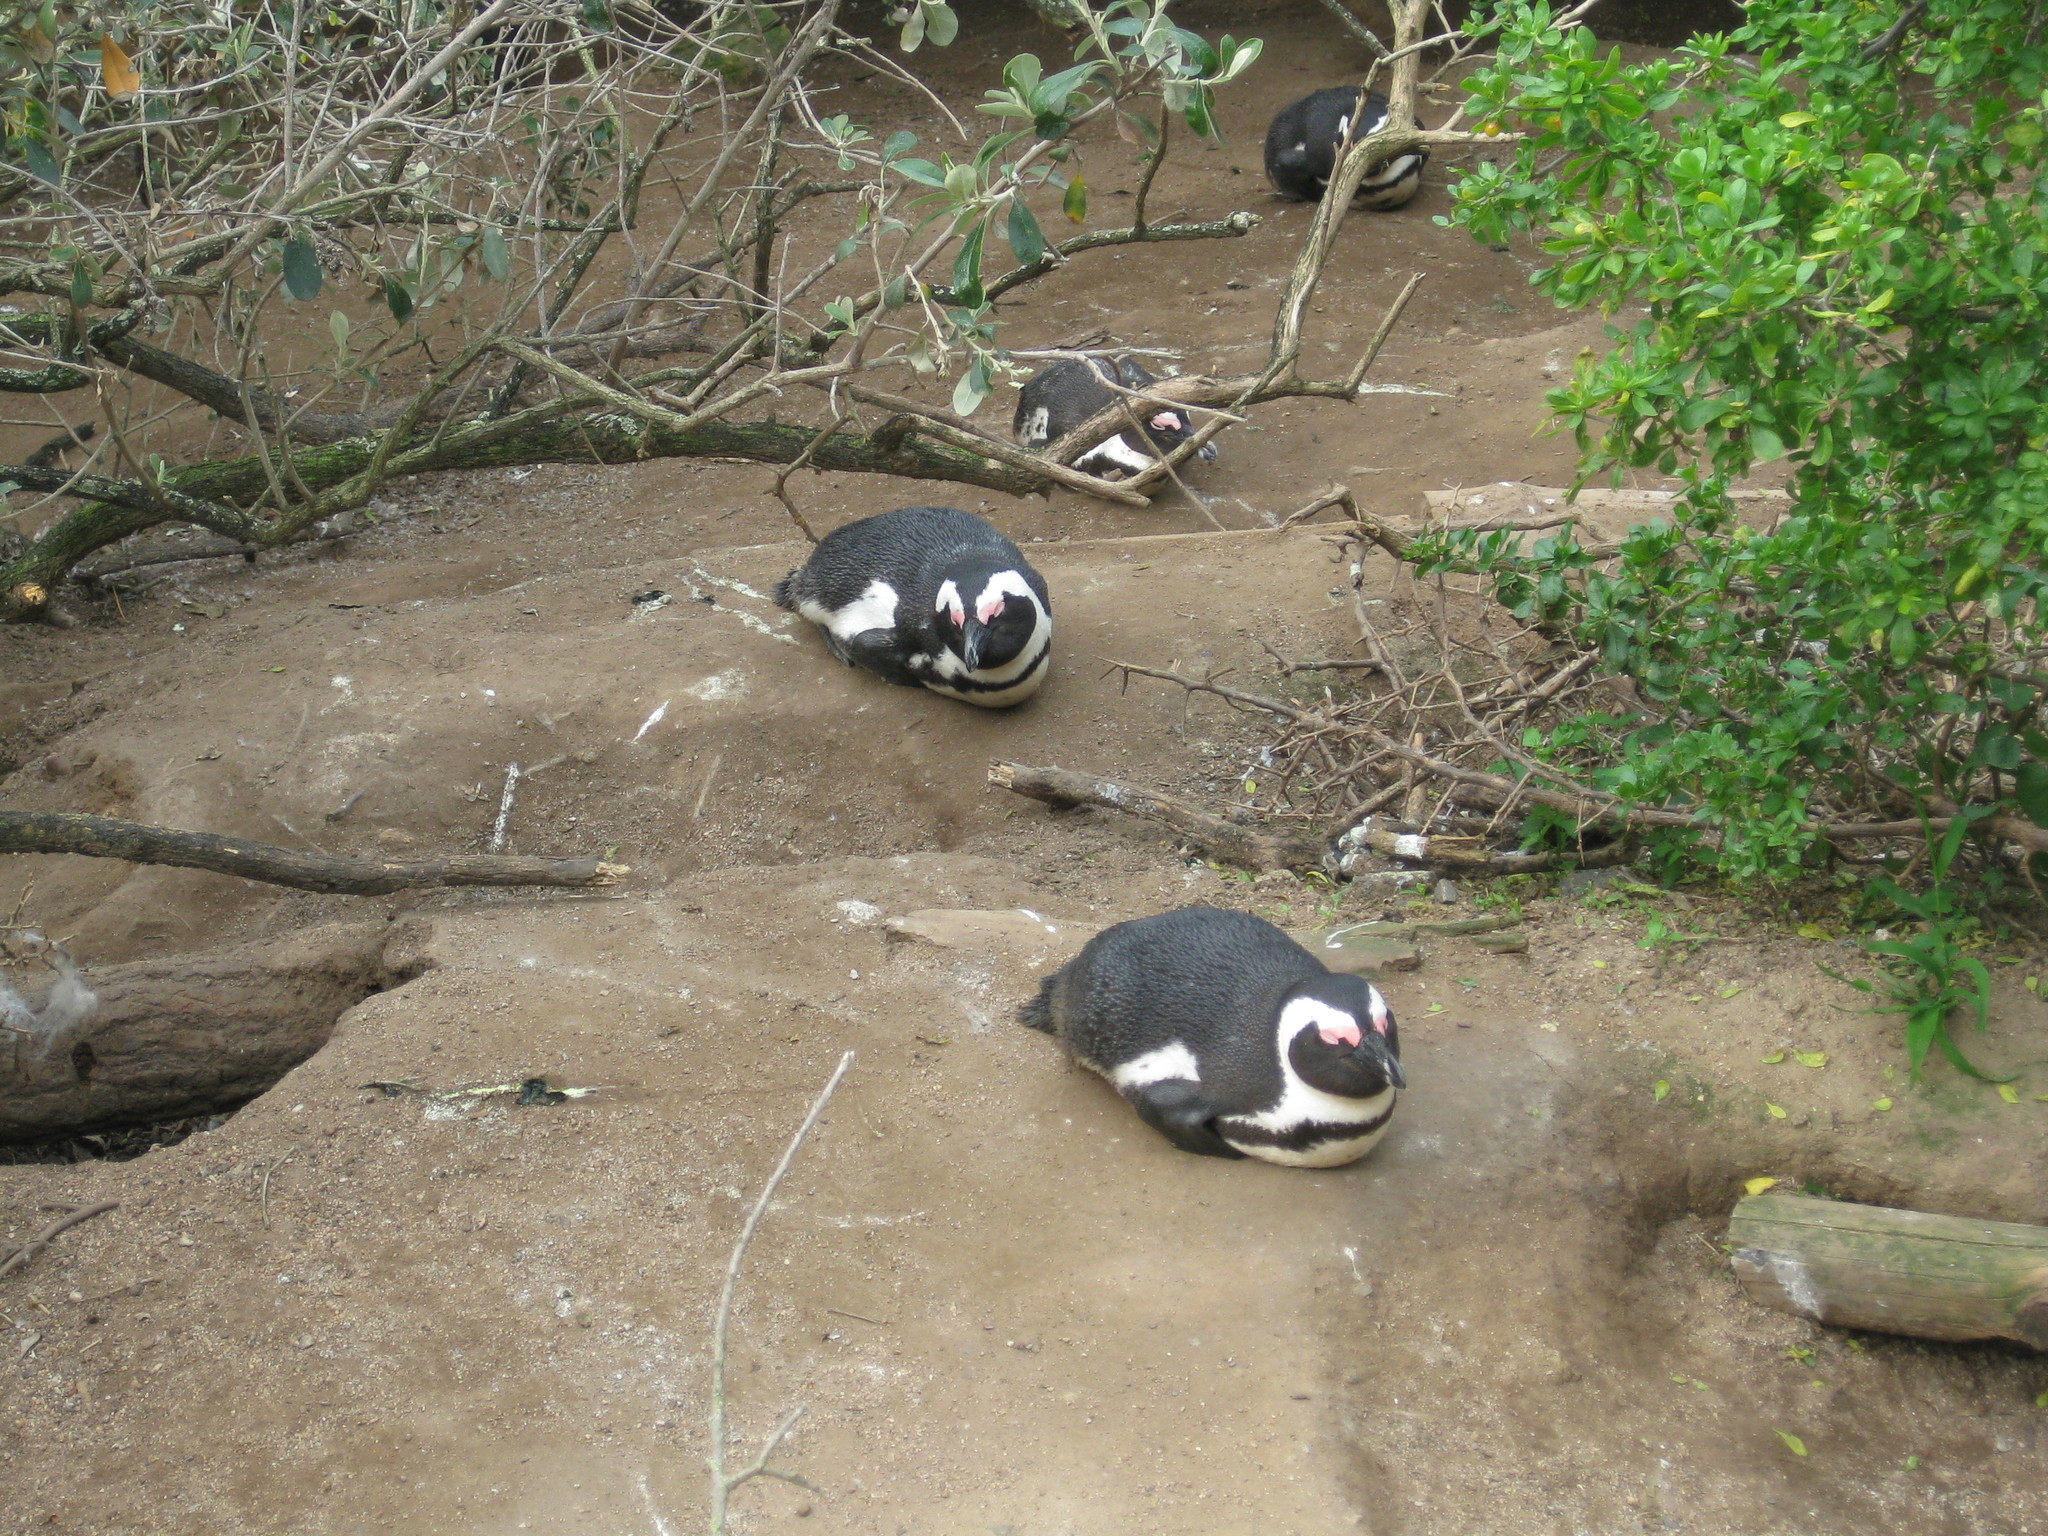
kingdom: Animalia
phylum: Chordata
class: Aves
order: Sphenisciformes
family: Spheniscidae
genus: Spheniscus
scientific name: Spheniscus demersus
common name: African penguin
